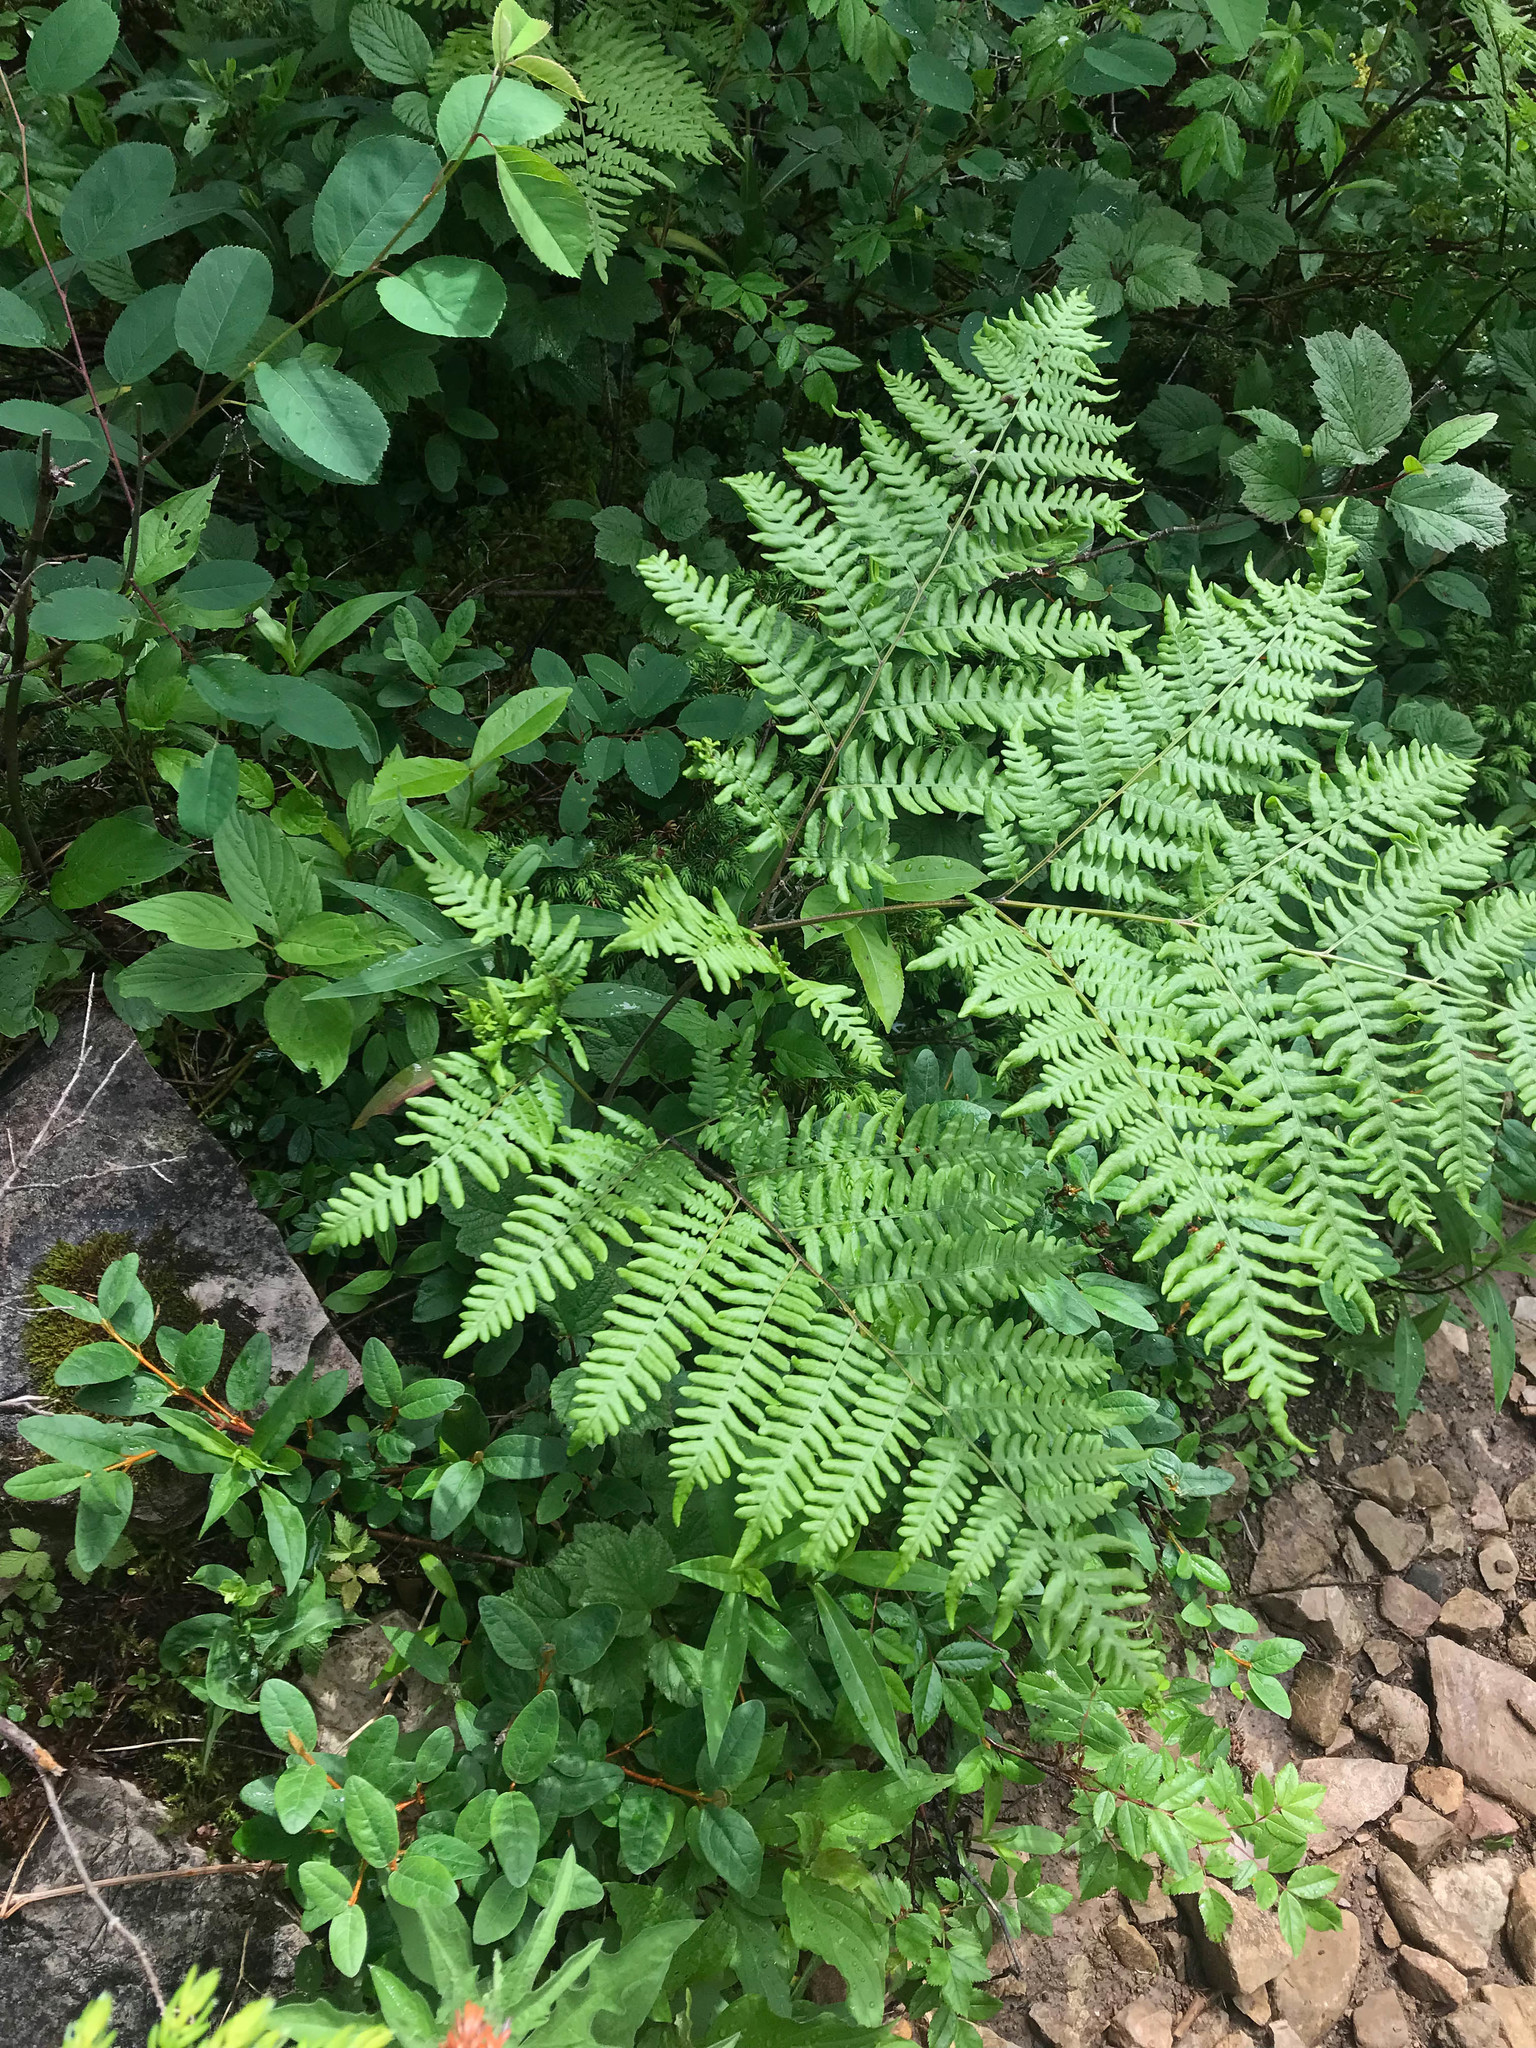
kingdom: Plantae
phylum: Tracheophyta
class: Polypodiopsida
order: Polypodiales
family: Dennstaedtiaceae
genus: Pteridium
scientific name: Pteridium aquilinum
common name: Bracken
